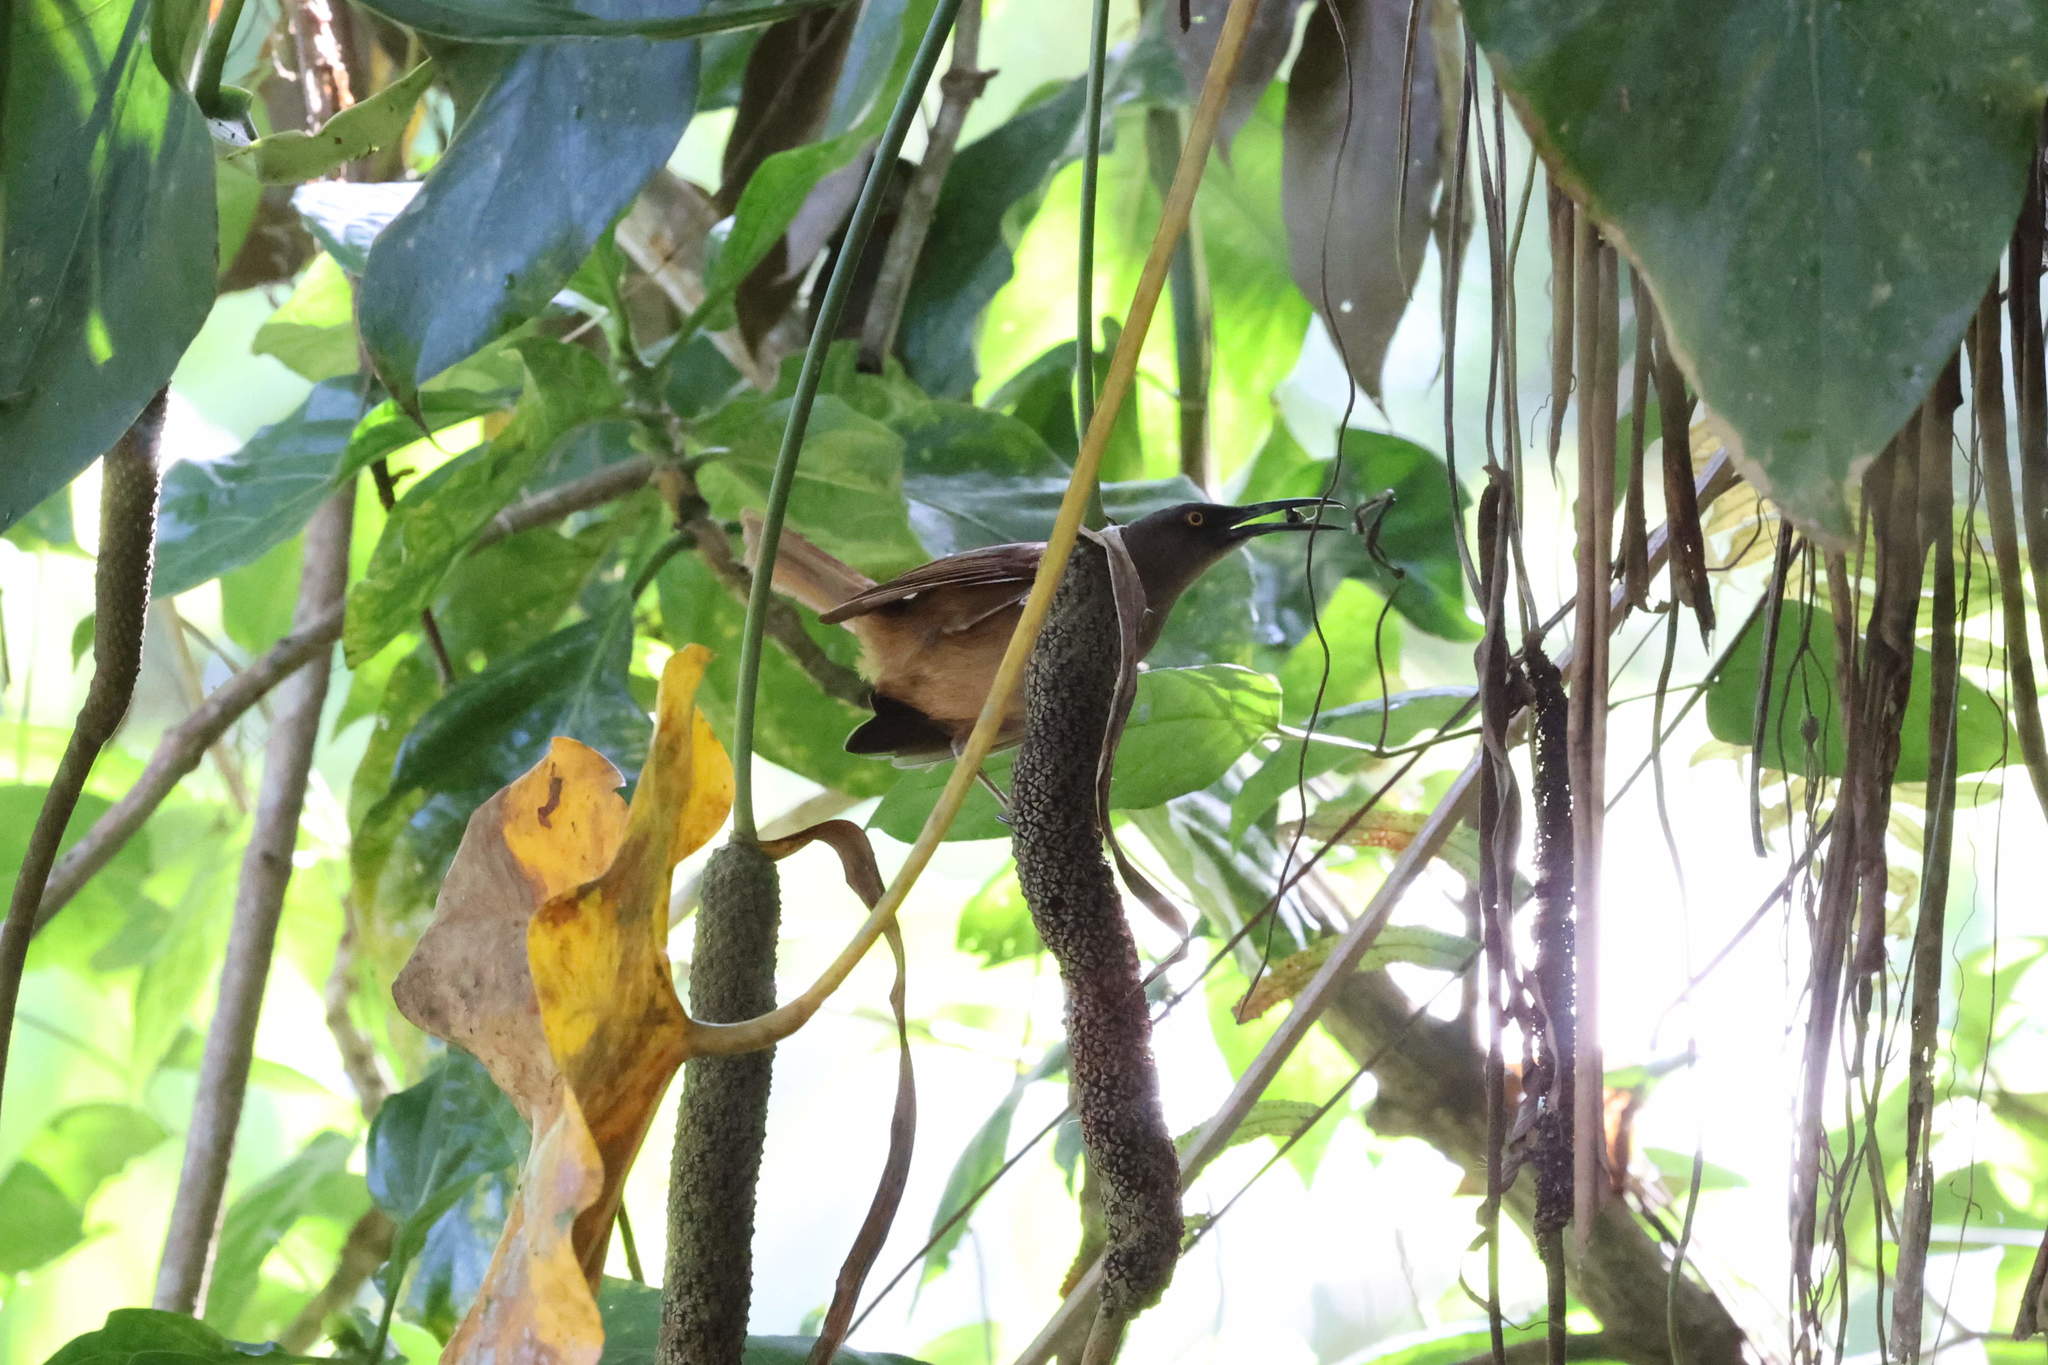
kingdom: Animalia
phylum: Chordata
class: Aves
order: Passeriformes
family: Mimidae
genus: Cinclocerthia
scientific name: Cinclocerthia ruficauda
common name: Brown trembler
